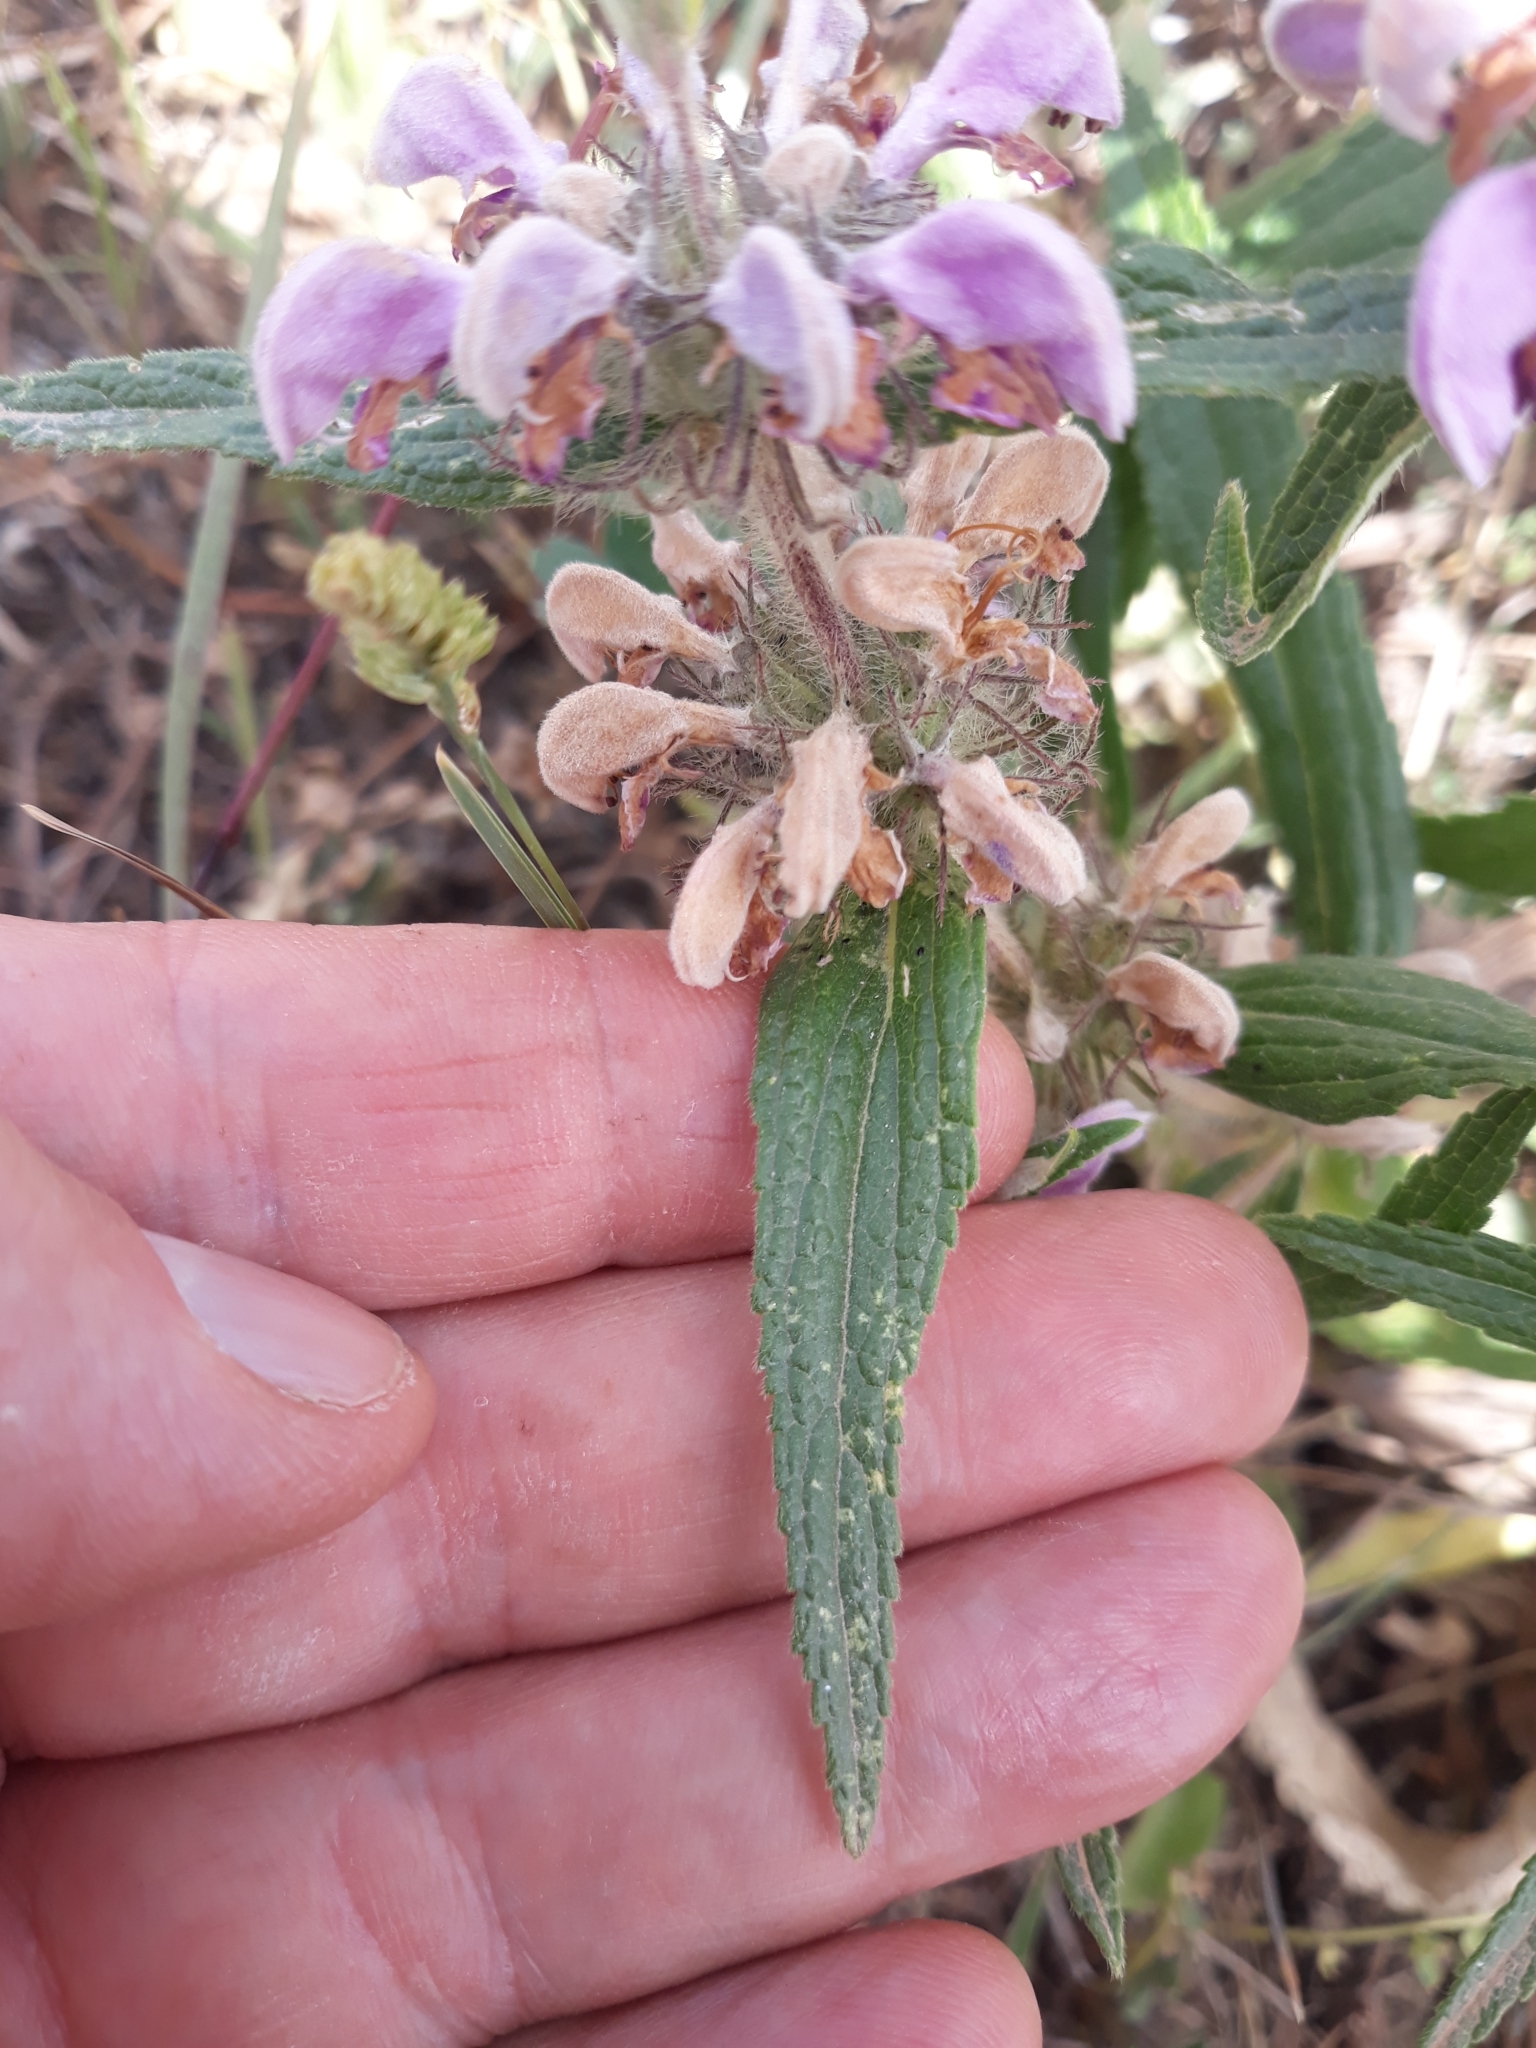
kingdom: Plantae
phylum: Tracheophyta
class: Magnoliopsida
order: Lamiales
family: Lamiaceae
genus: Phlomis
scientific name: Phlomis herba-venti
